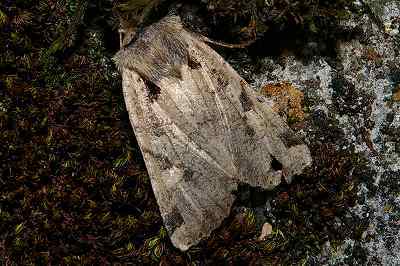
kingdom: Animalia
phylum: Arthropoda
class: Insecta
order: Lepidoptera
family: Noctuidae
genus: Rhynchaglaea
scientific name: Rhynchaglaea scitula
